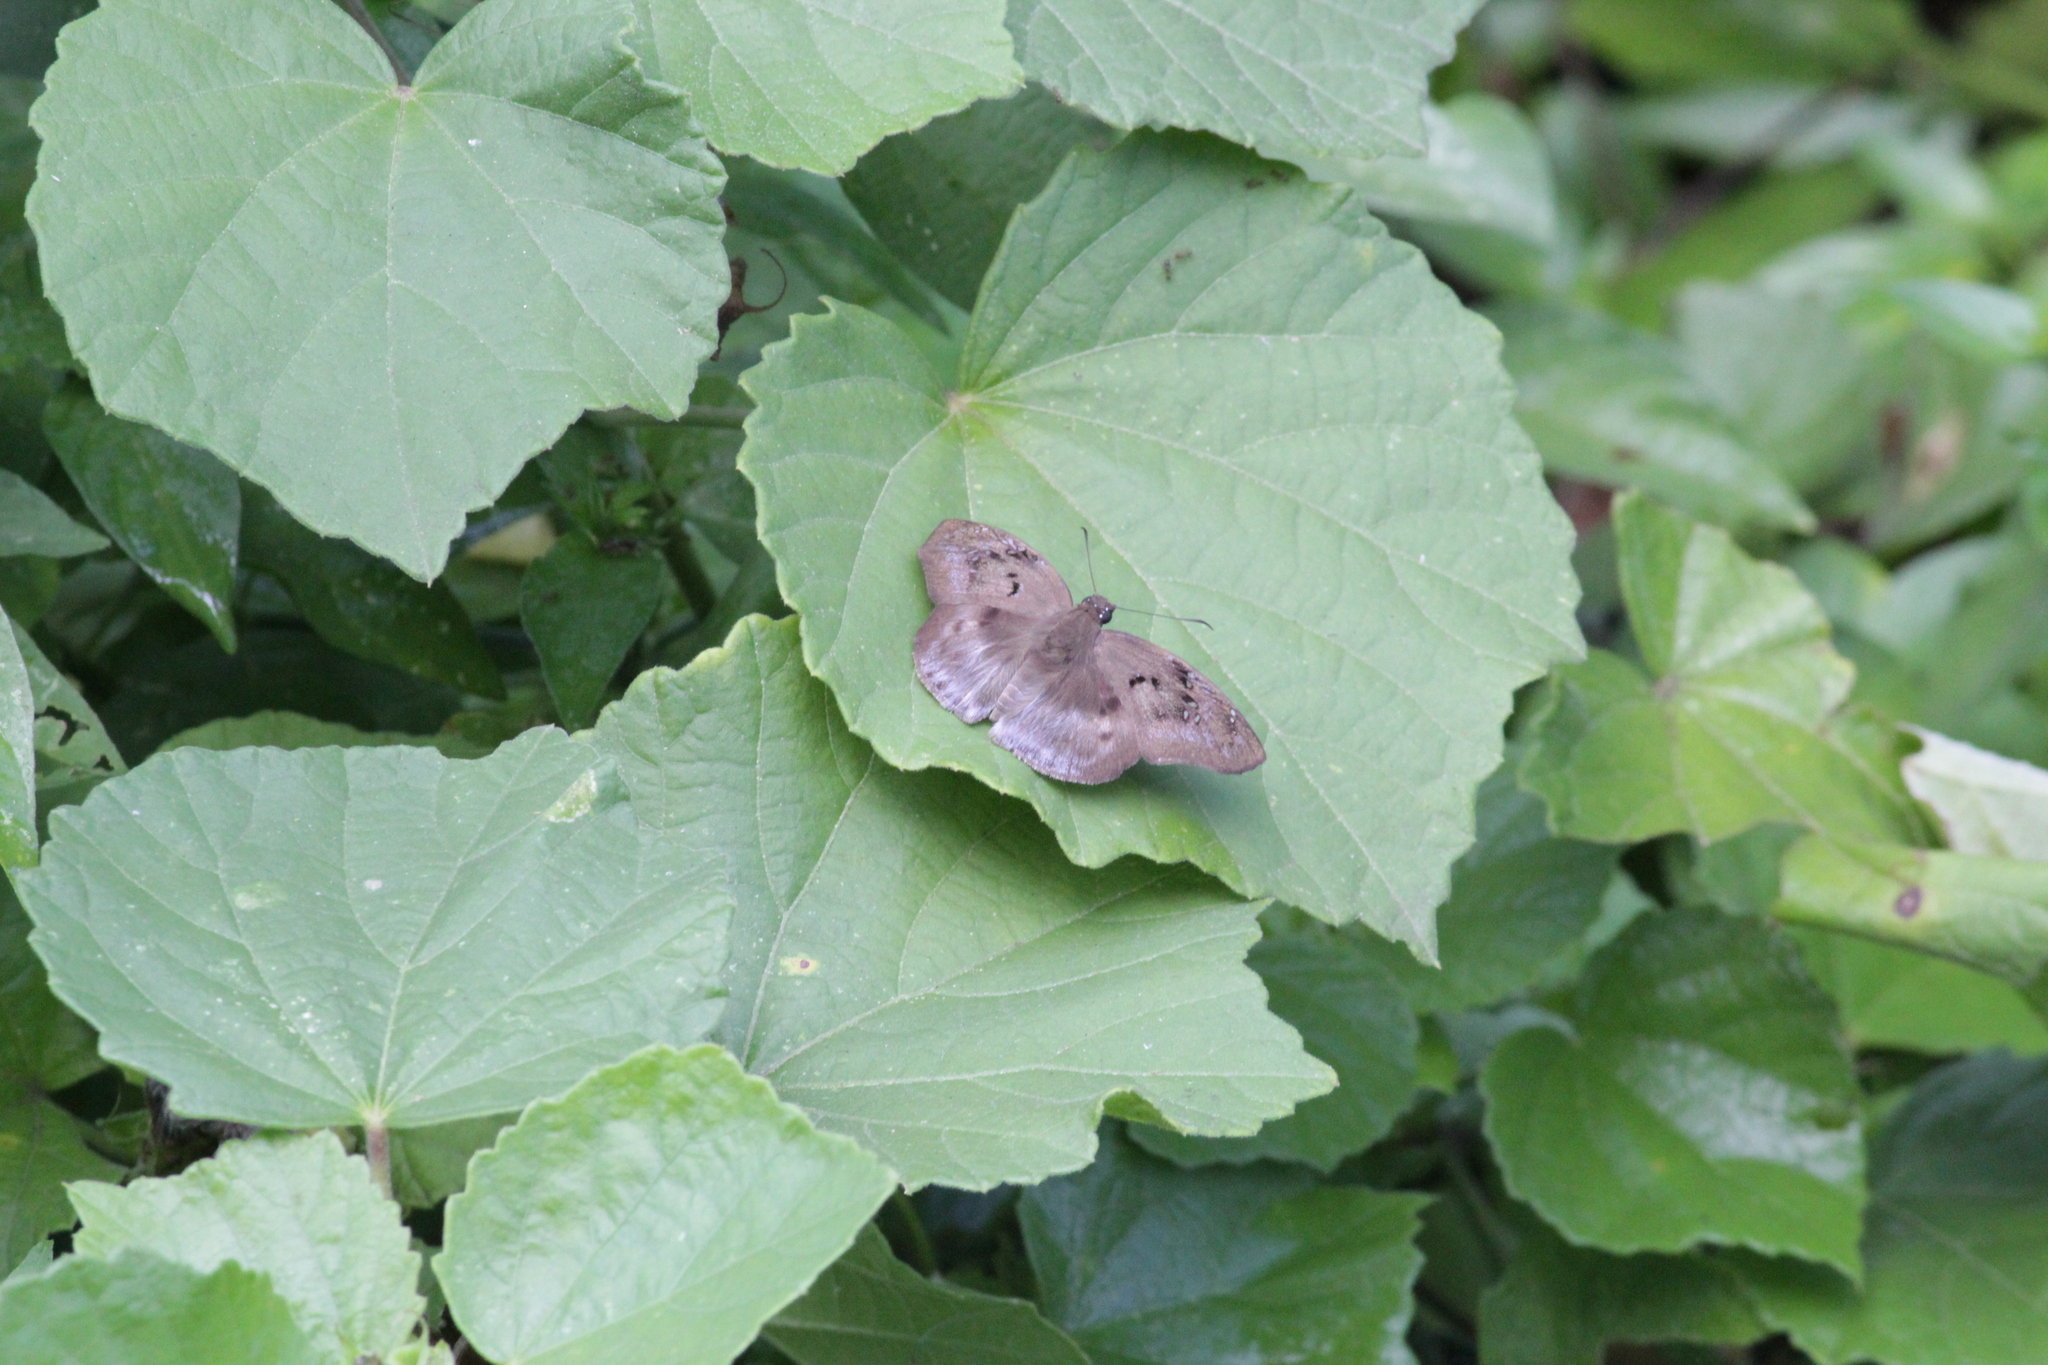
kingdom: Animalia
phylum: Arthropoda
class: Insecta
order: Lepidoptera
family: Hesperiidae
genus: Tagiades
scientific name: Tagiades flesus
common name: Clouded flat
